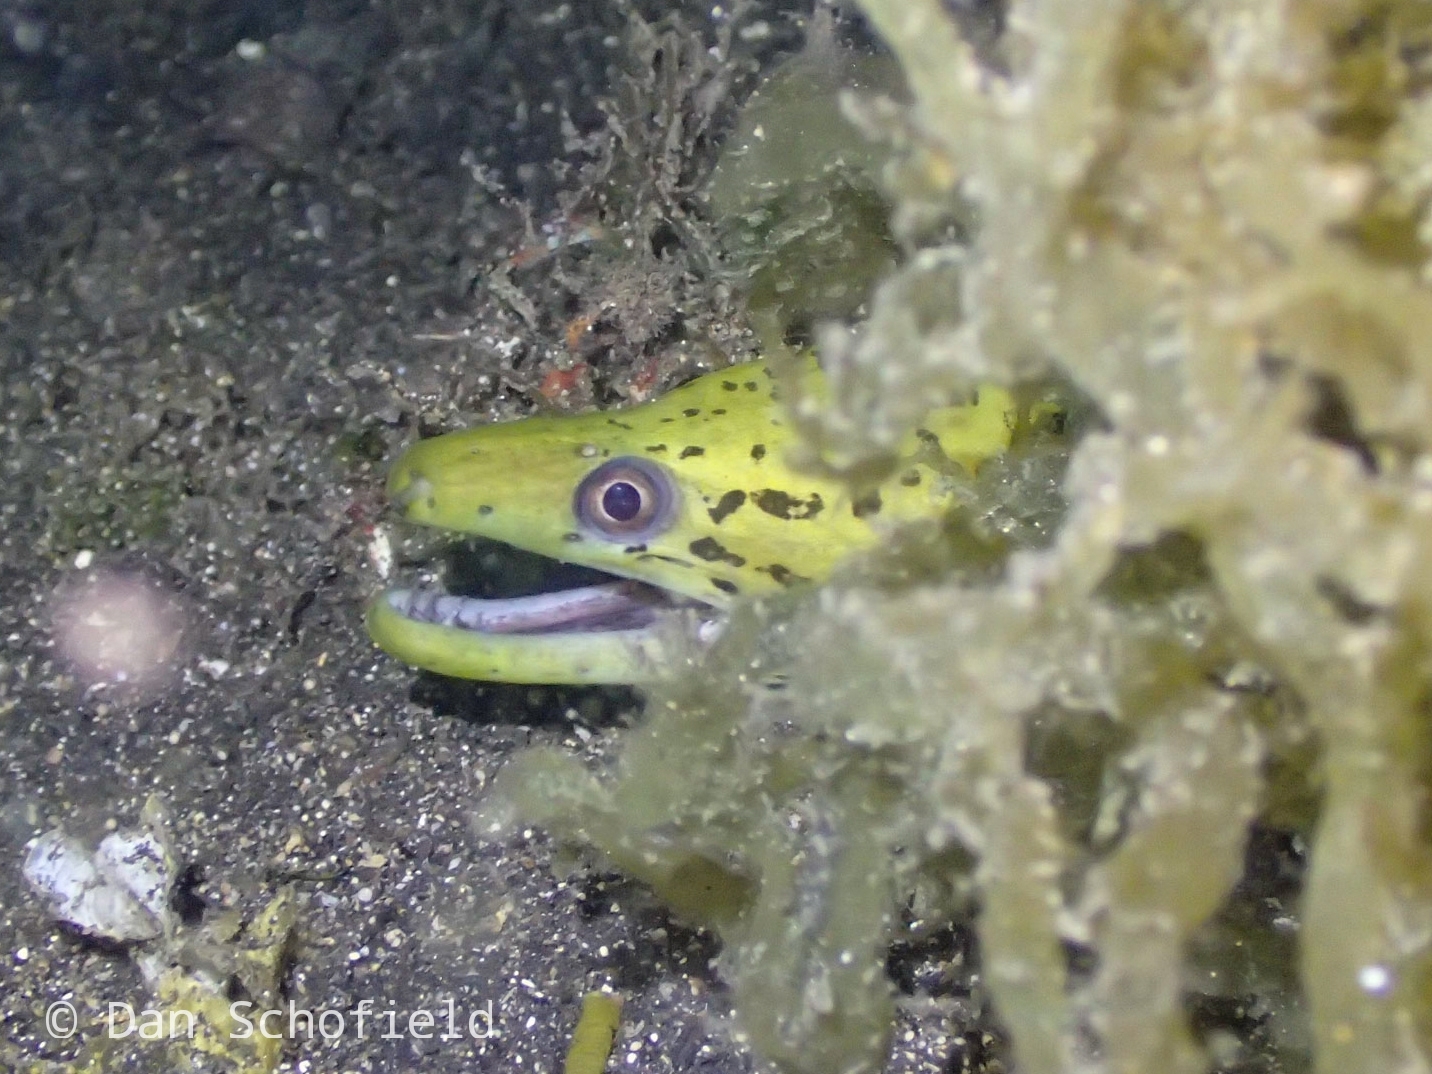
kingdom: Animalia
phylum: Chordata
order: Anguilliformes
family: Muraenidae
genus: Gymnothorax
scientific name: Gymnothorax fimbriatus
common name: Darkspotted moray
